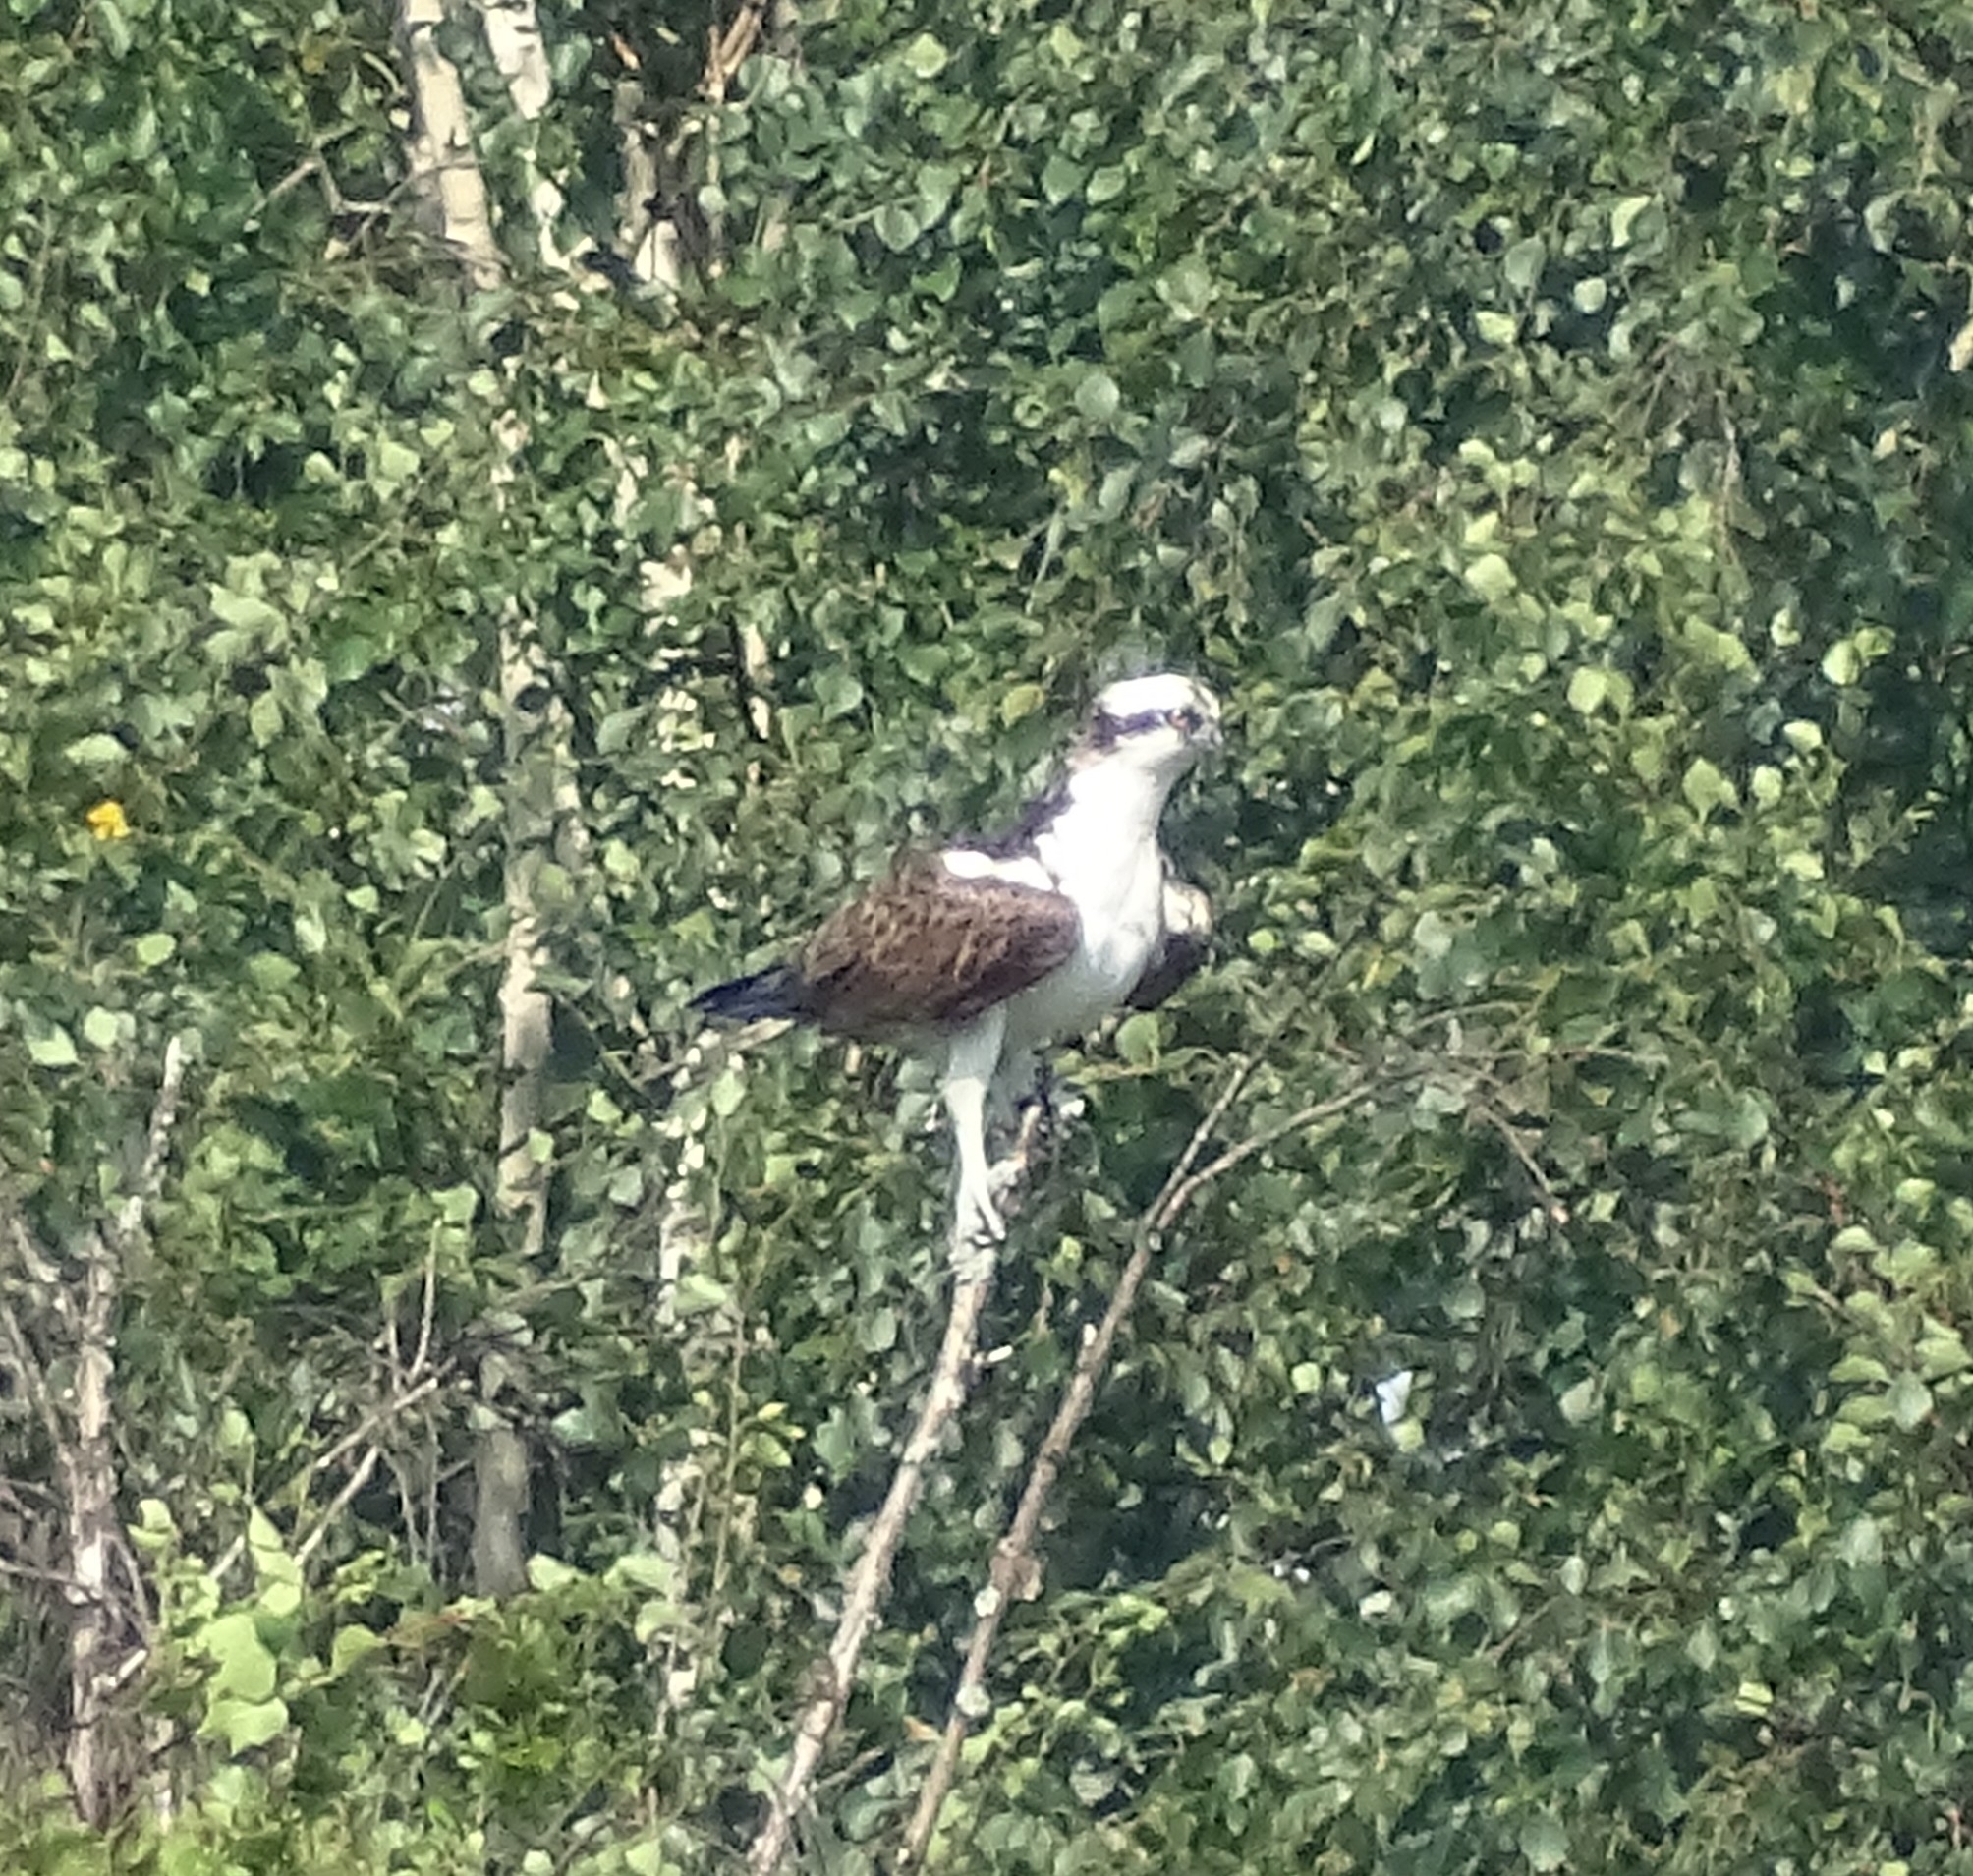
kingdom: Animalia
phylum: Chordata
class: Aves
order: Accipitriformes
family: Pandionidae
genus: Pandion
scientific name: Pandion haliaetus
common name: Osprey
